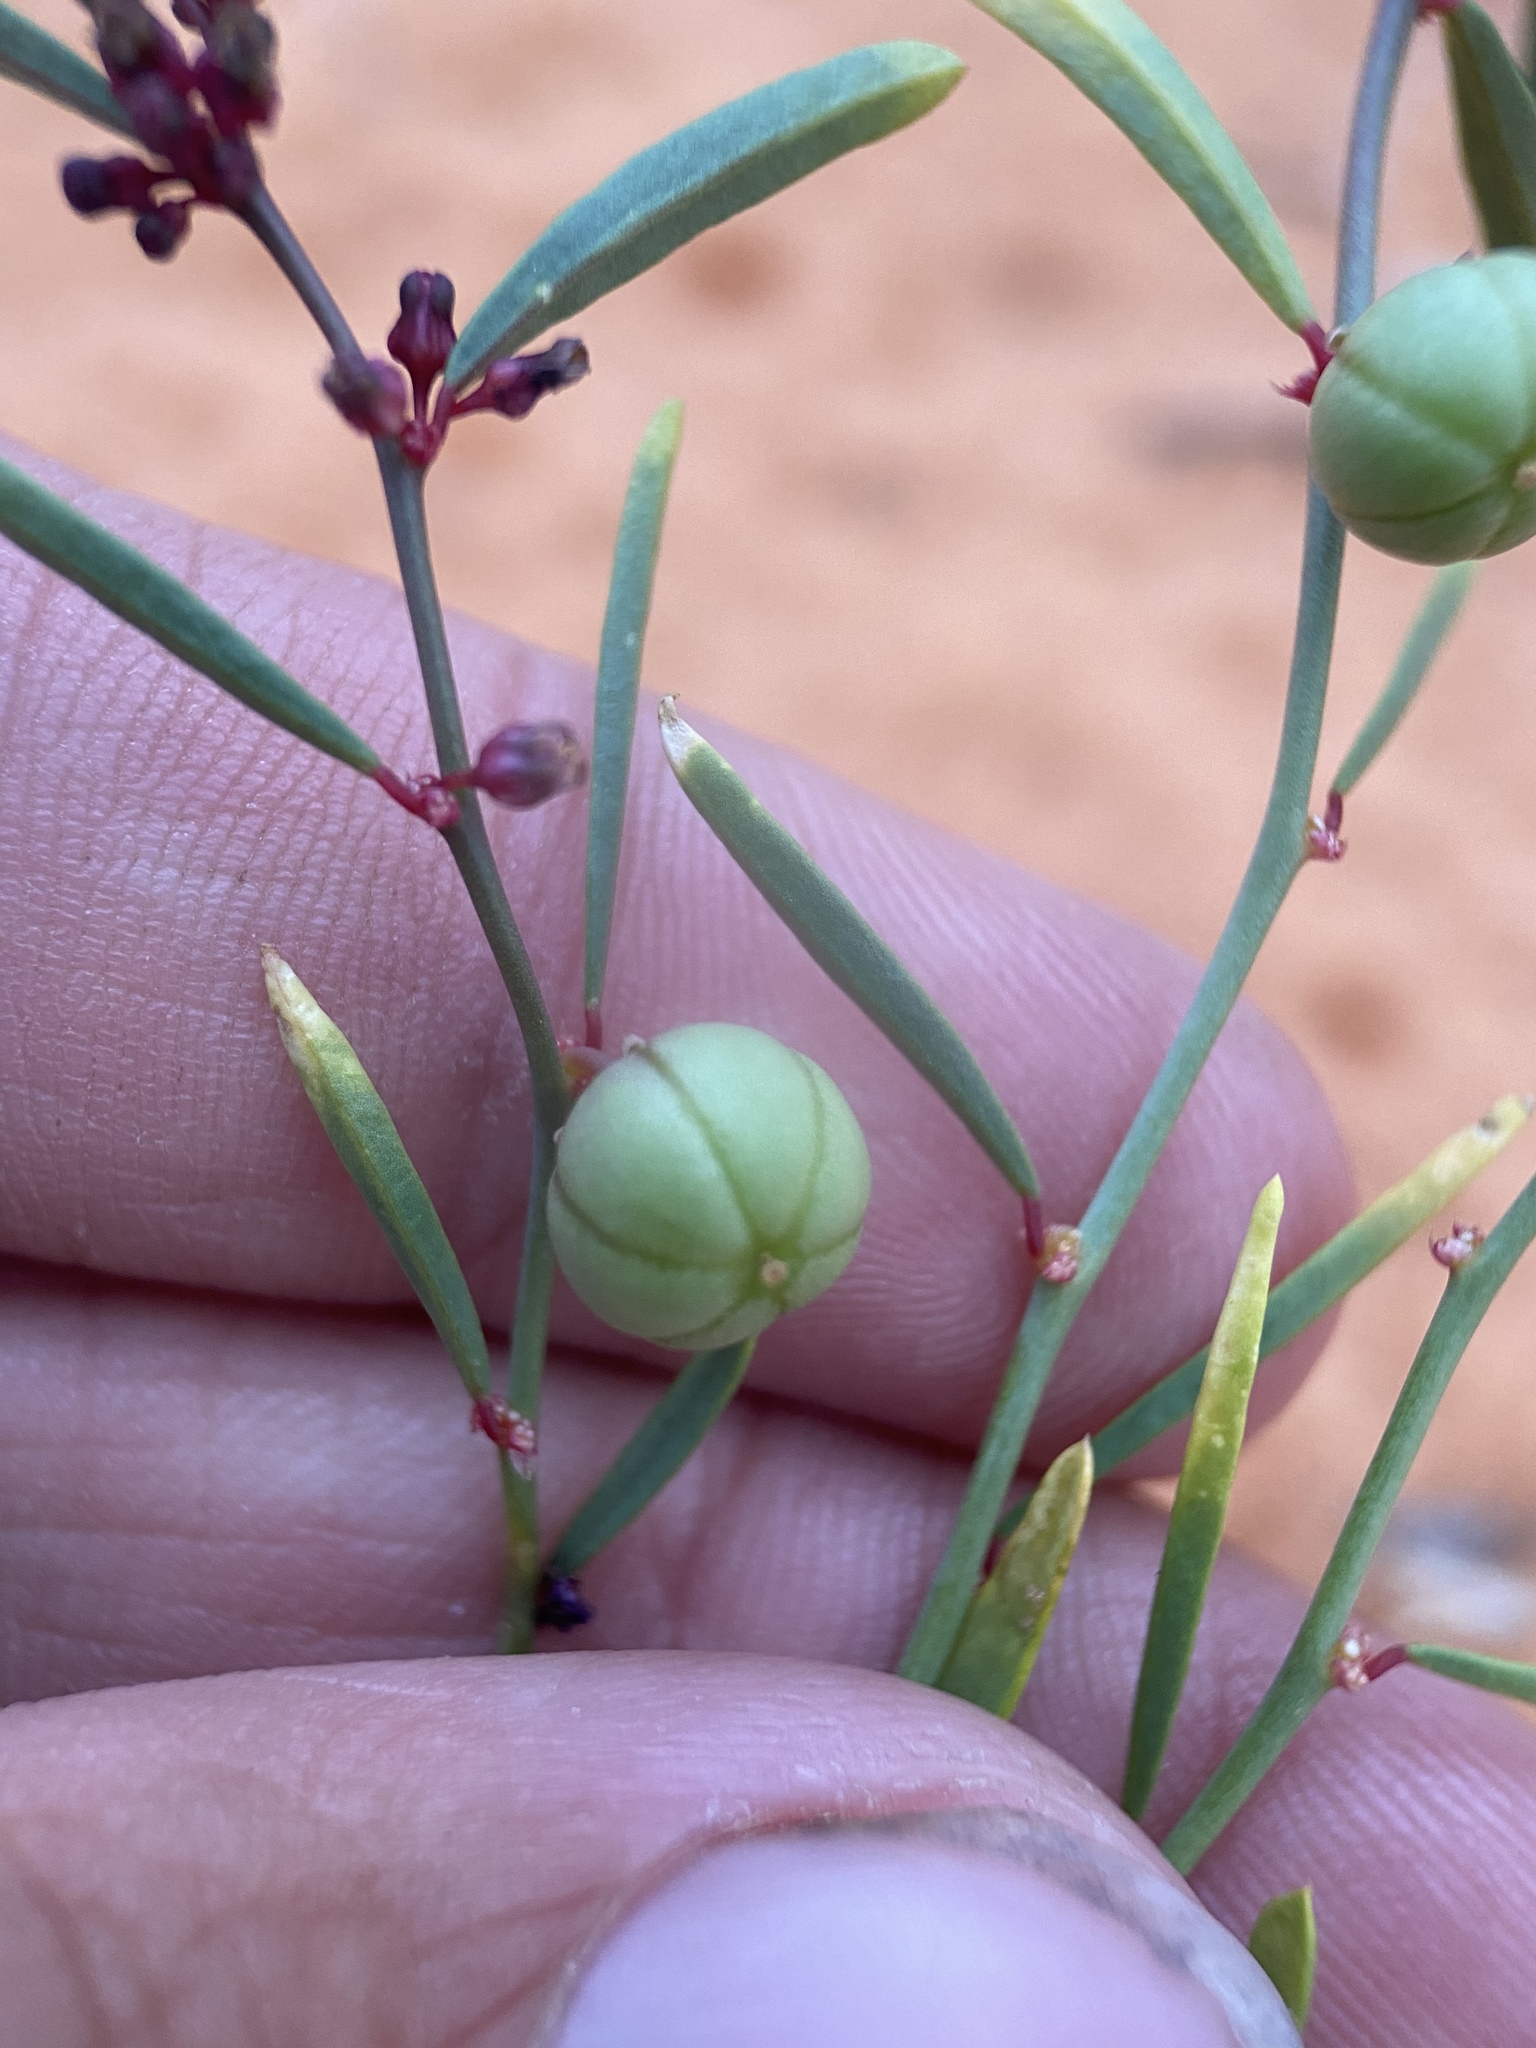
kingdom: Plantae
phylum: Tracheophyta
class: Magnoliopsida
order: Malpighiales
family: Phyllanthaceae
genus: Phyllanthus
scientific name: Phyllanthus warnockii
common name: Sand reverchonia
